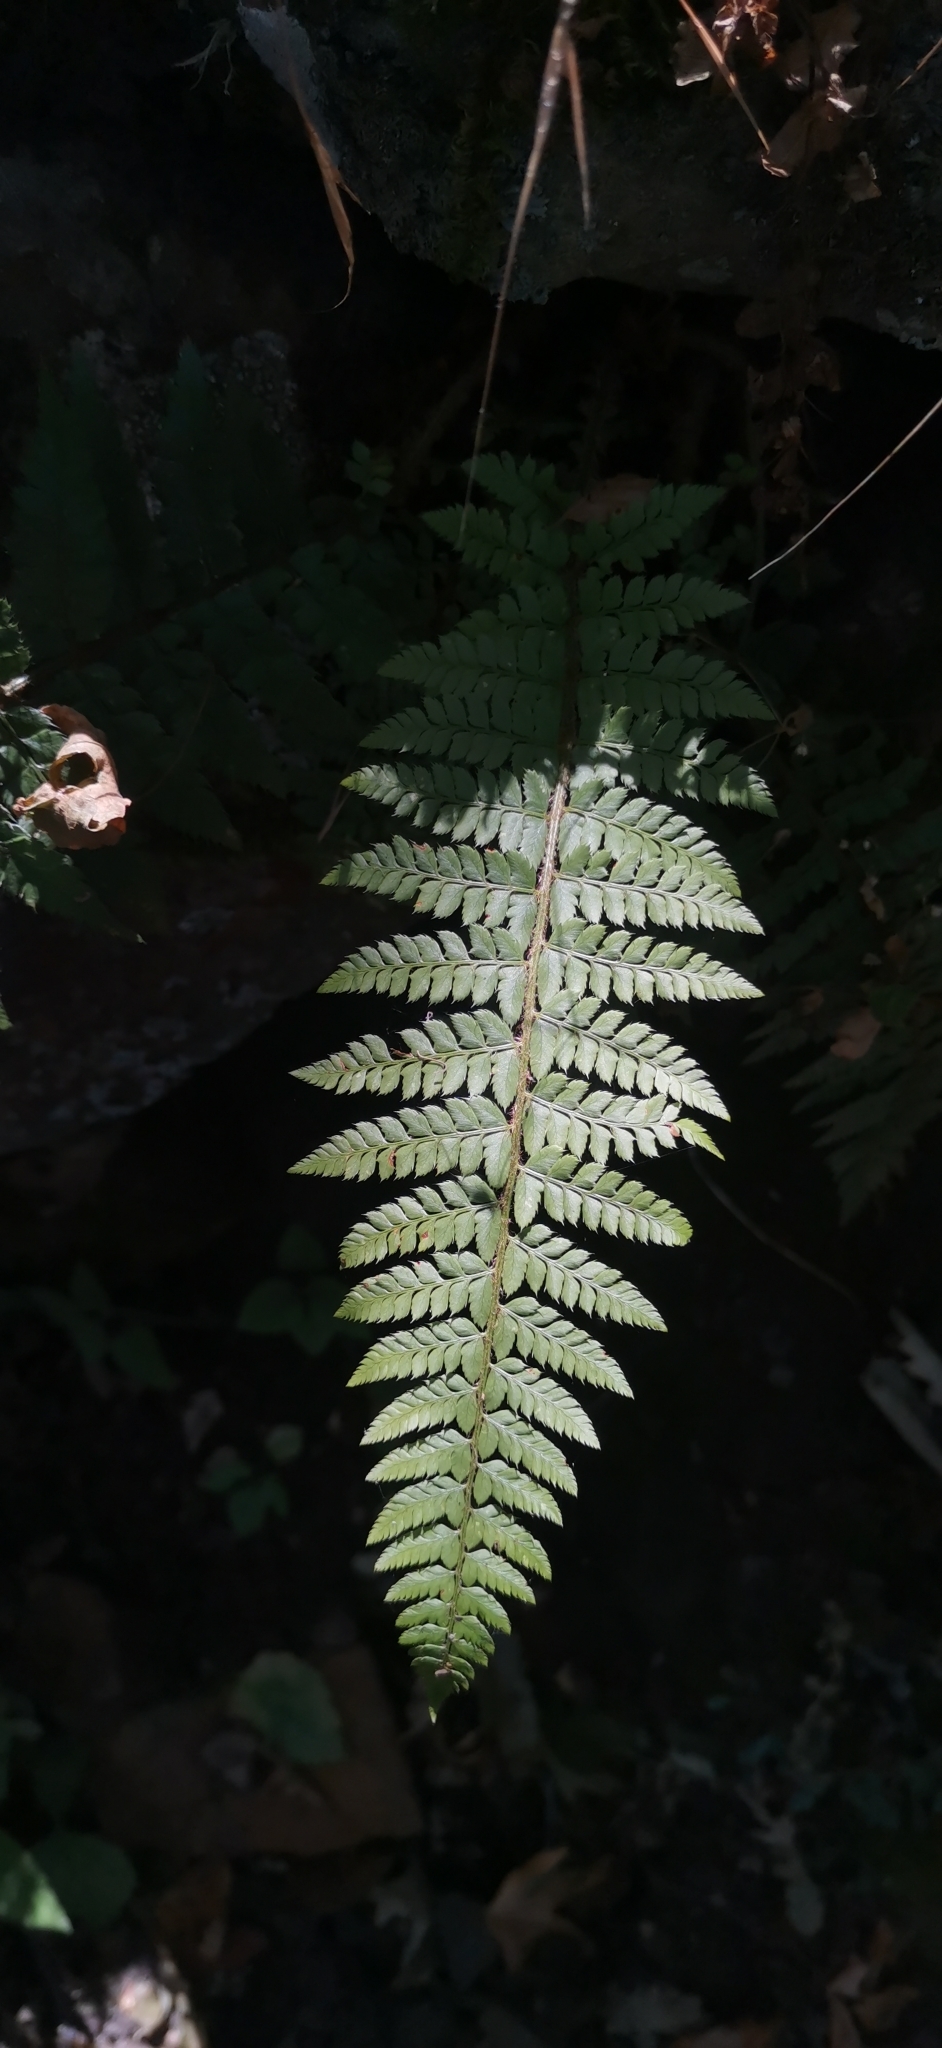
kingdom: Plantae
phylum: Tracheophyta
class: Polypodiopsida
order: Polypodiales
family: Dryopteridaceae
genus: Polystichum
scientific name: Polystichum setiferum
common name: Soft shield-fern
